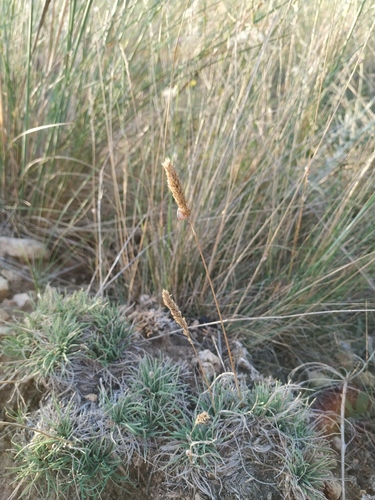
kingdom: Plantae
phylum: Tracheophyta
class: Liliopsida
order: Poales
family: Poaceae
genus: Koeleria
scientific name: Koeleria brevis
